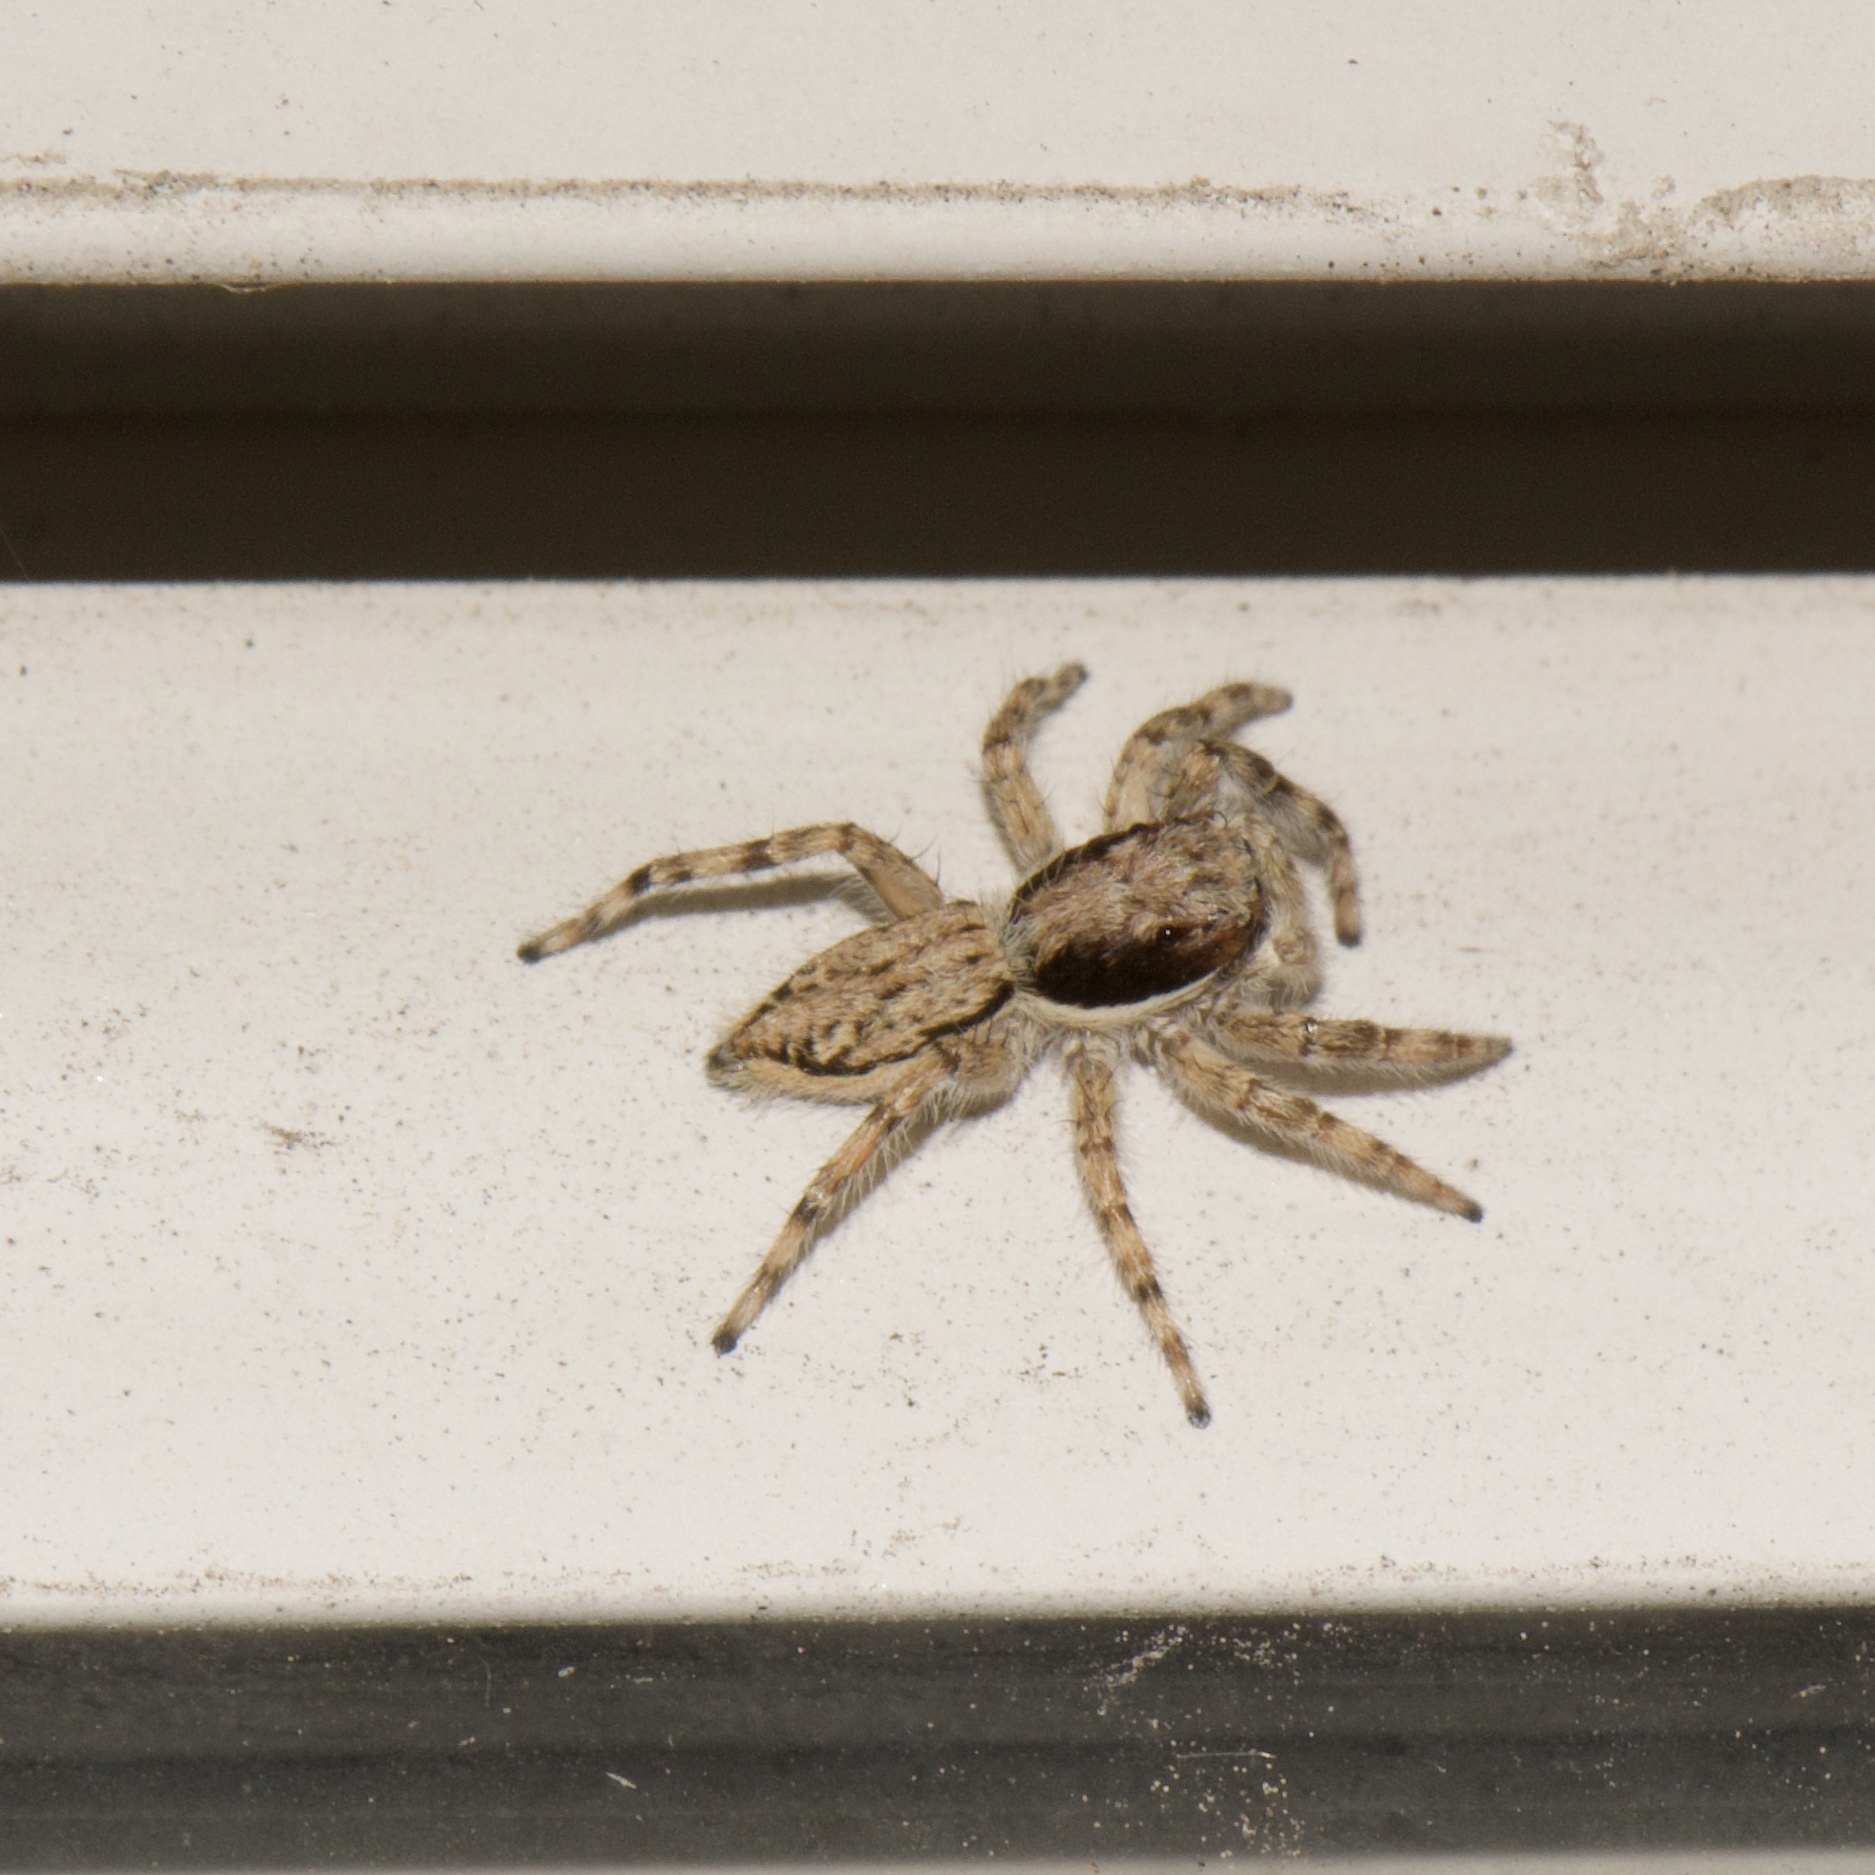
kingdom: Animalia
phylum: Arthropoda
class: Arachnida
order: Araneae
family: Salticidae
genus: Menemerus
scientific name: Menemerus bivittatus
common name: Gray wall jumper
